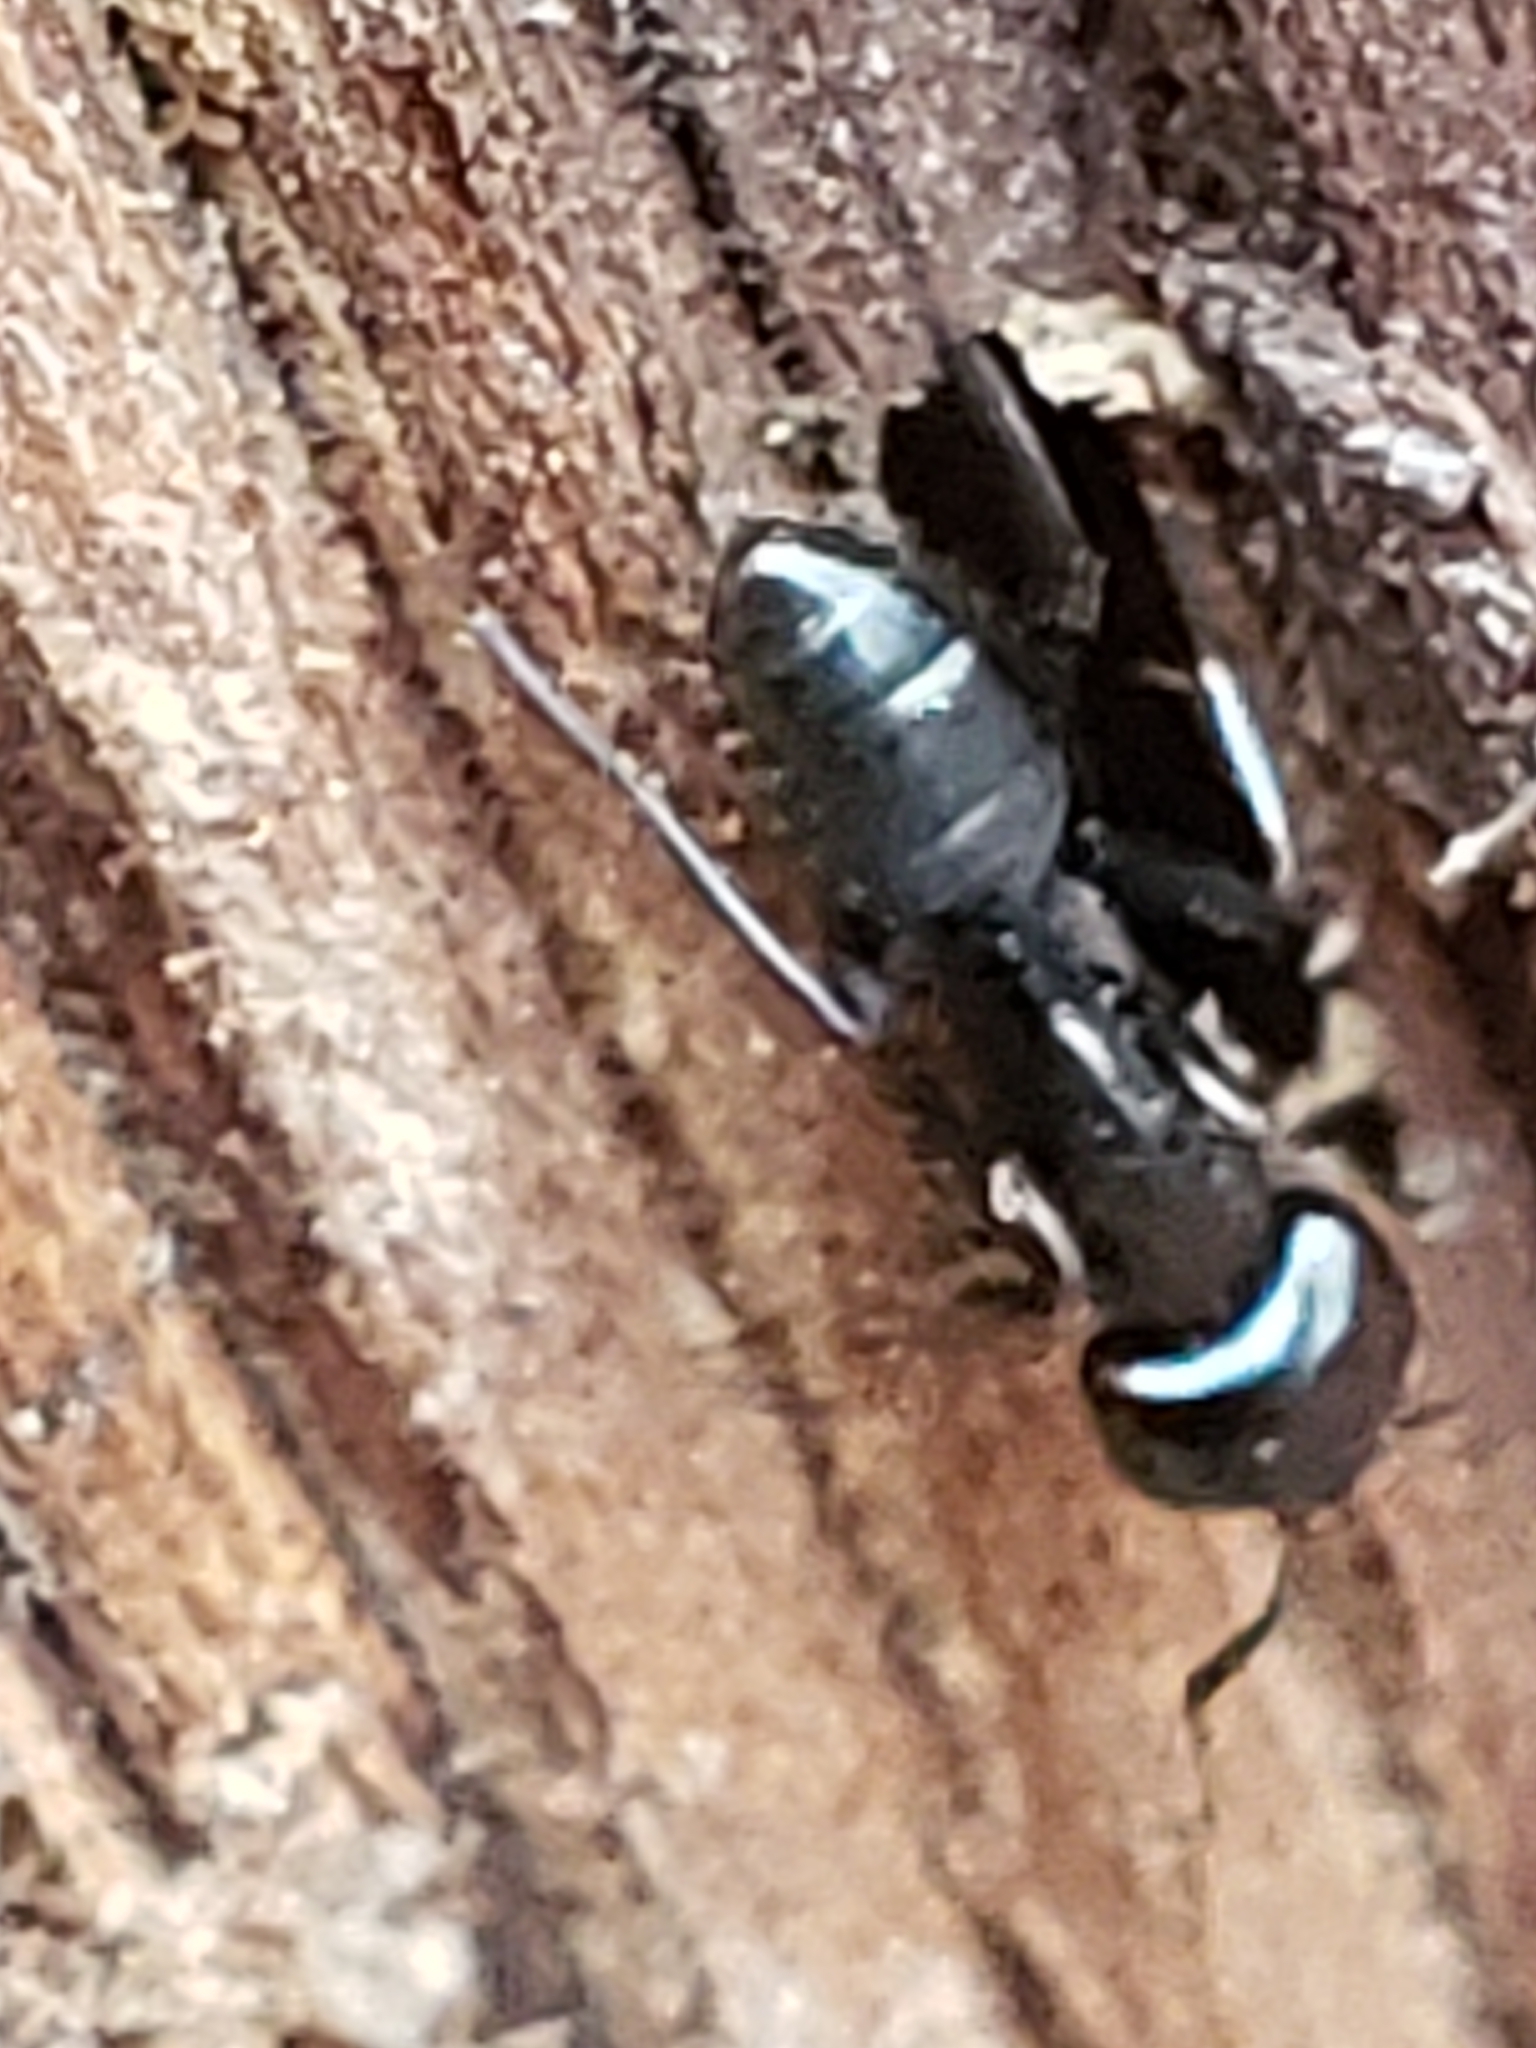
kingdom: Animalia
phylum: Arthropoda
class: Insecta
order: Hymenoptera
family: Formicidae
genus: Camponotus
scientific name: Camponotus nearcticus
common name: Smaller carpenter ant
